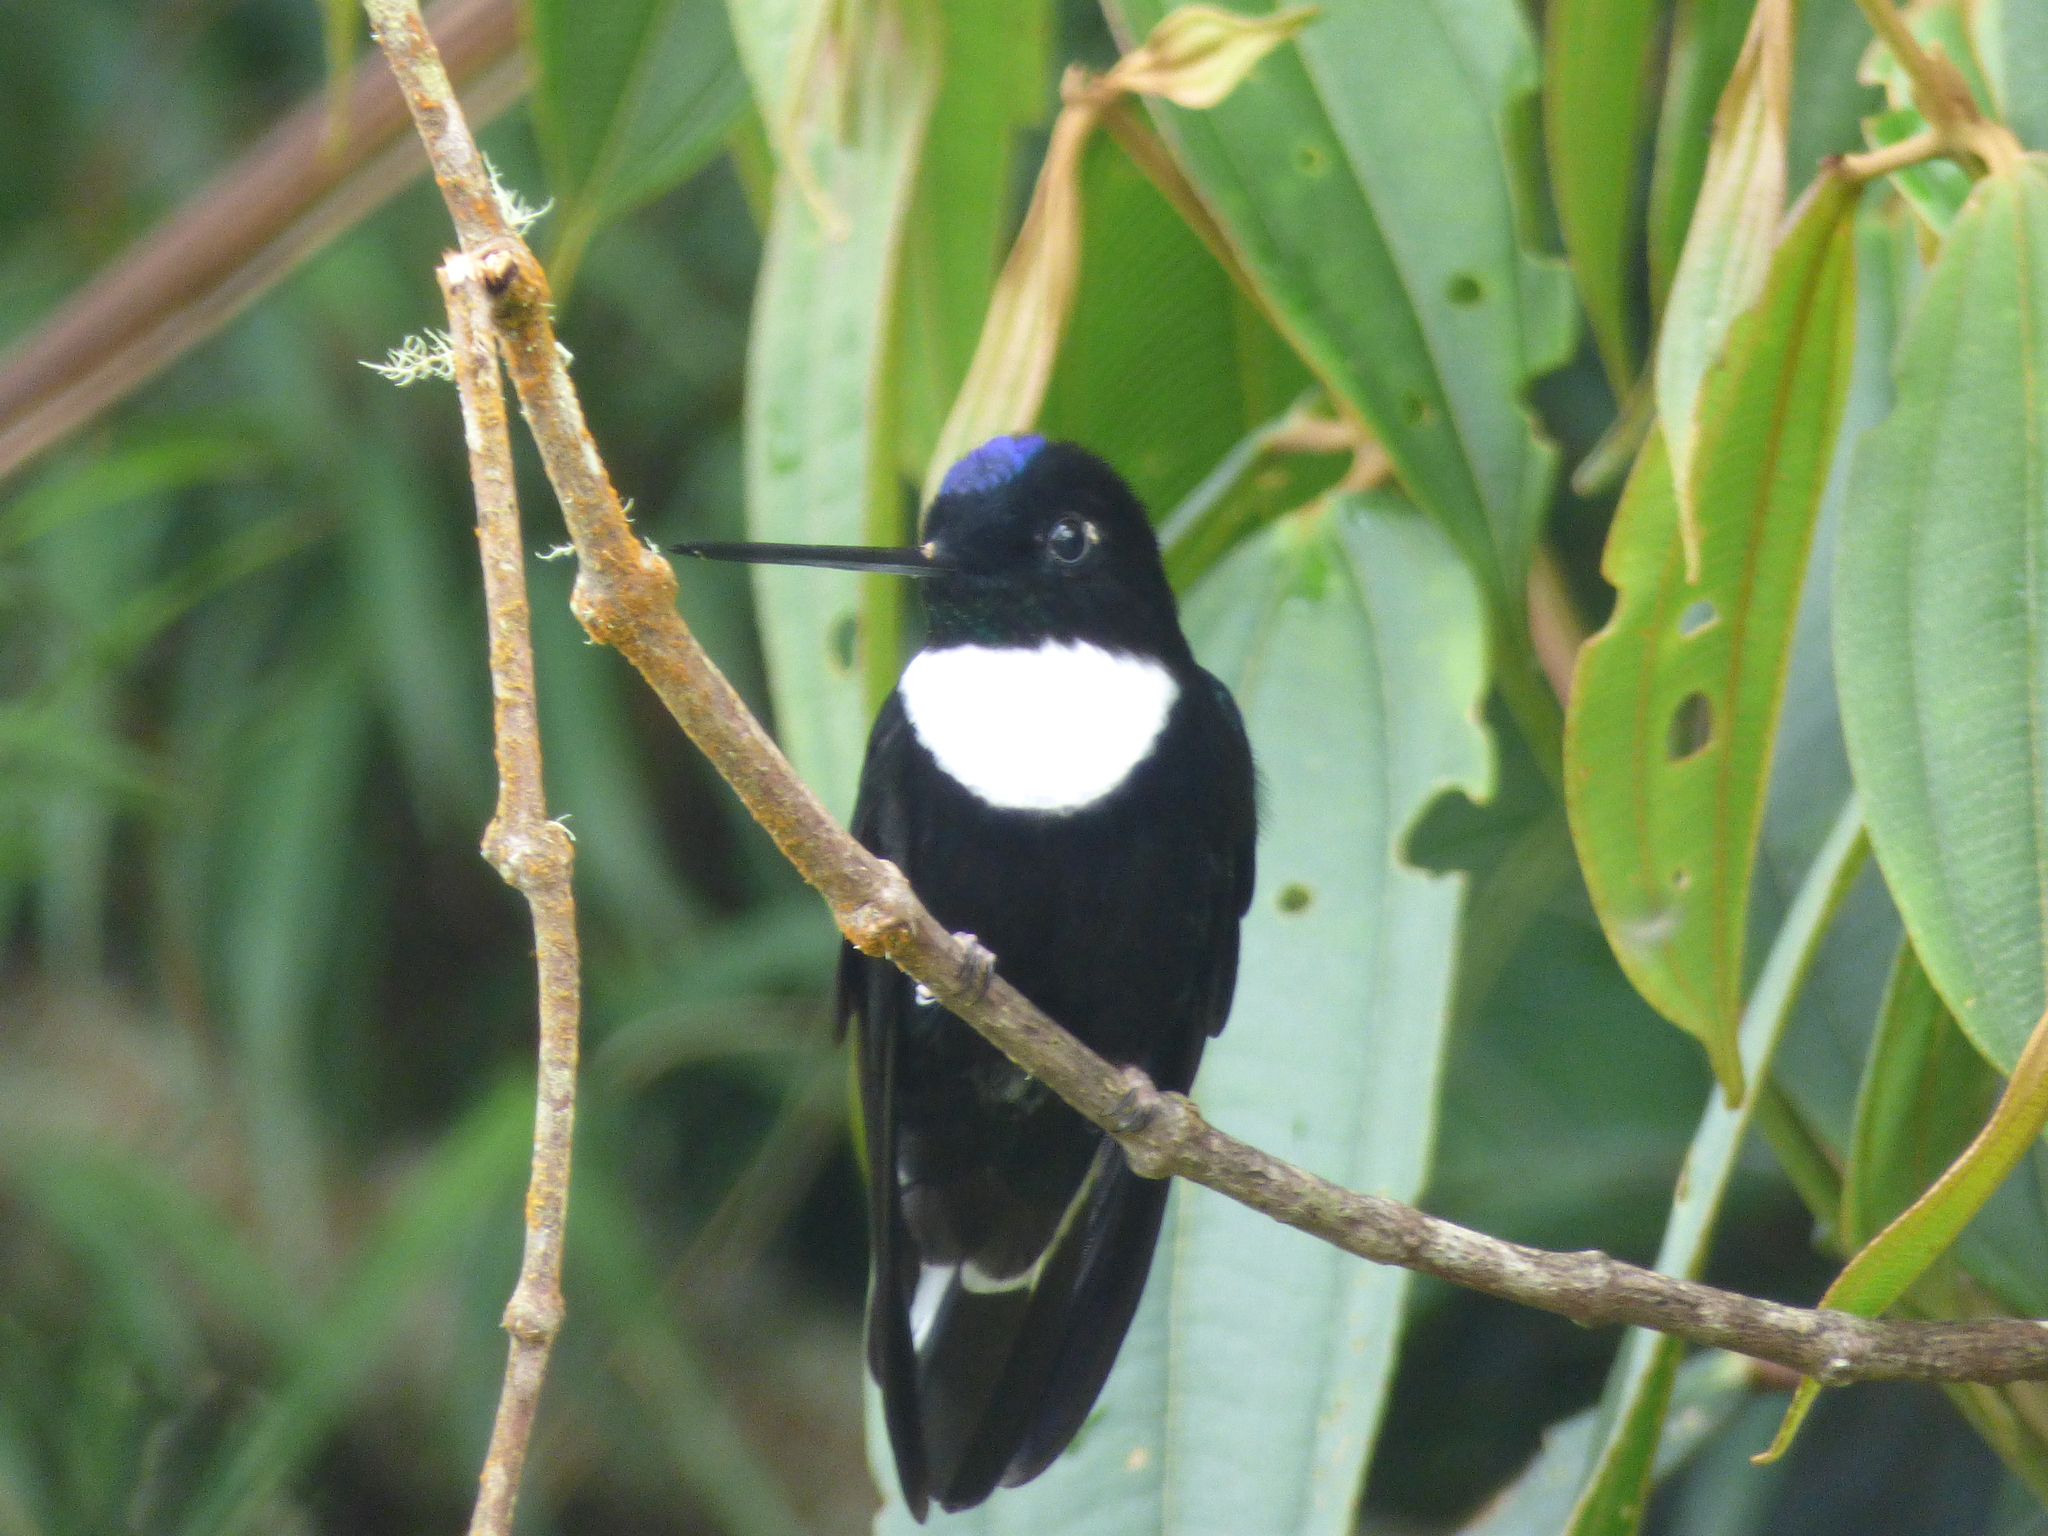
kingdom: Animalia
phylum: Chordata
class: Aves
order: Apodiformes
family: Trochilidae
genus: Coeligena
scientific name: Coeligena torquata
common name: Collared inca
